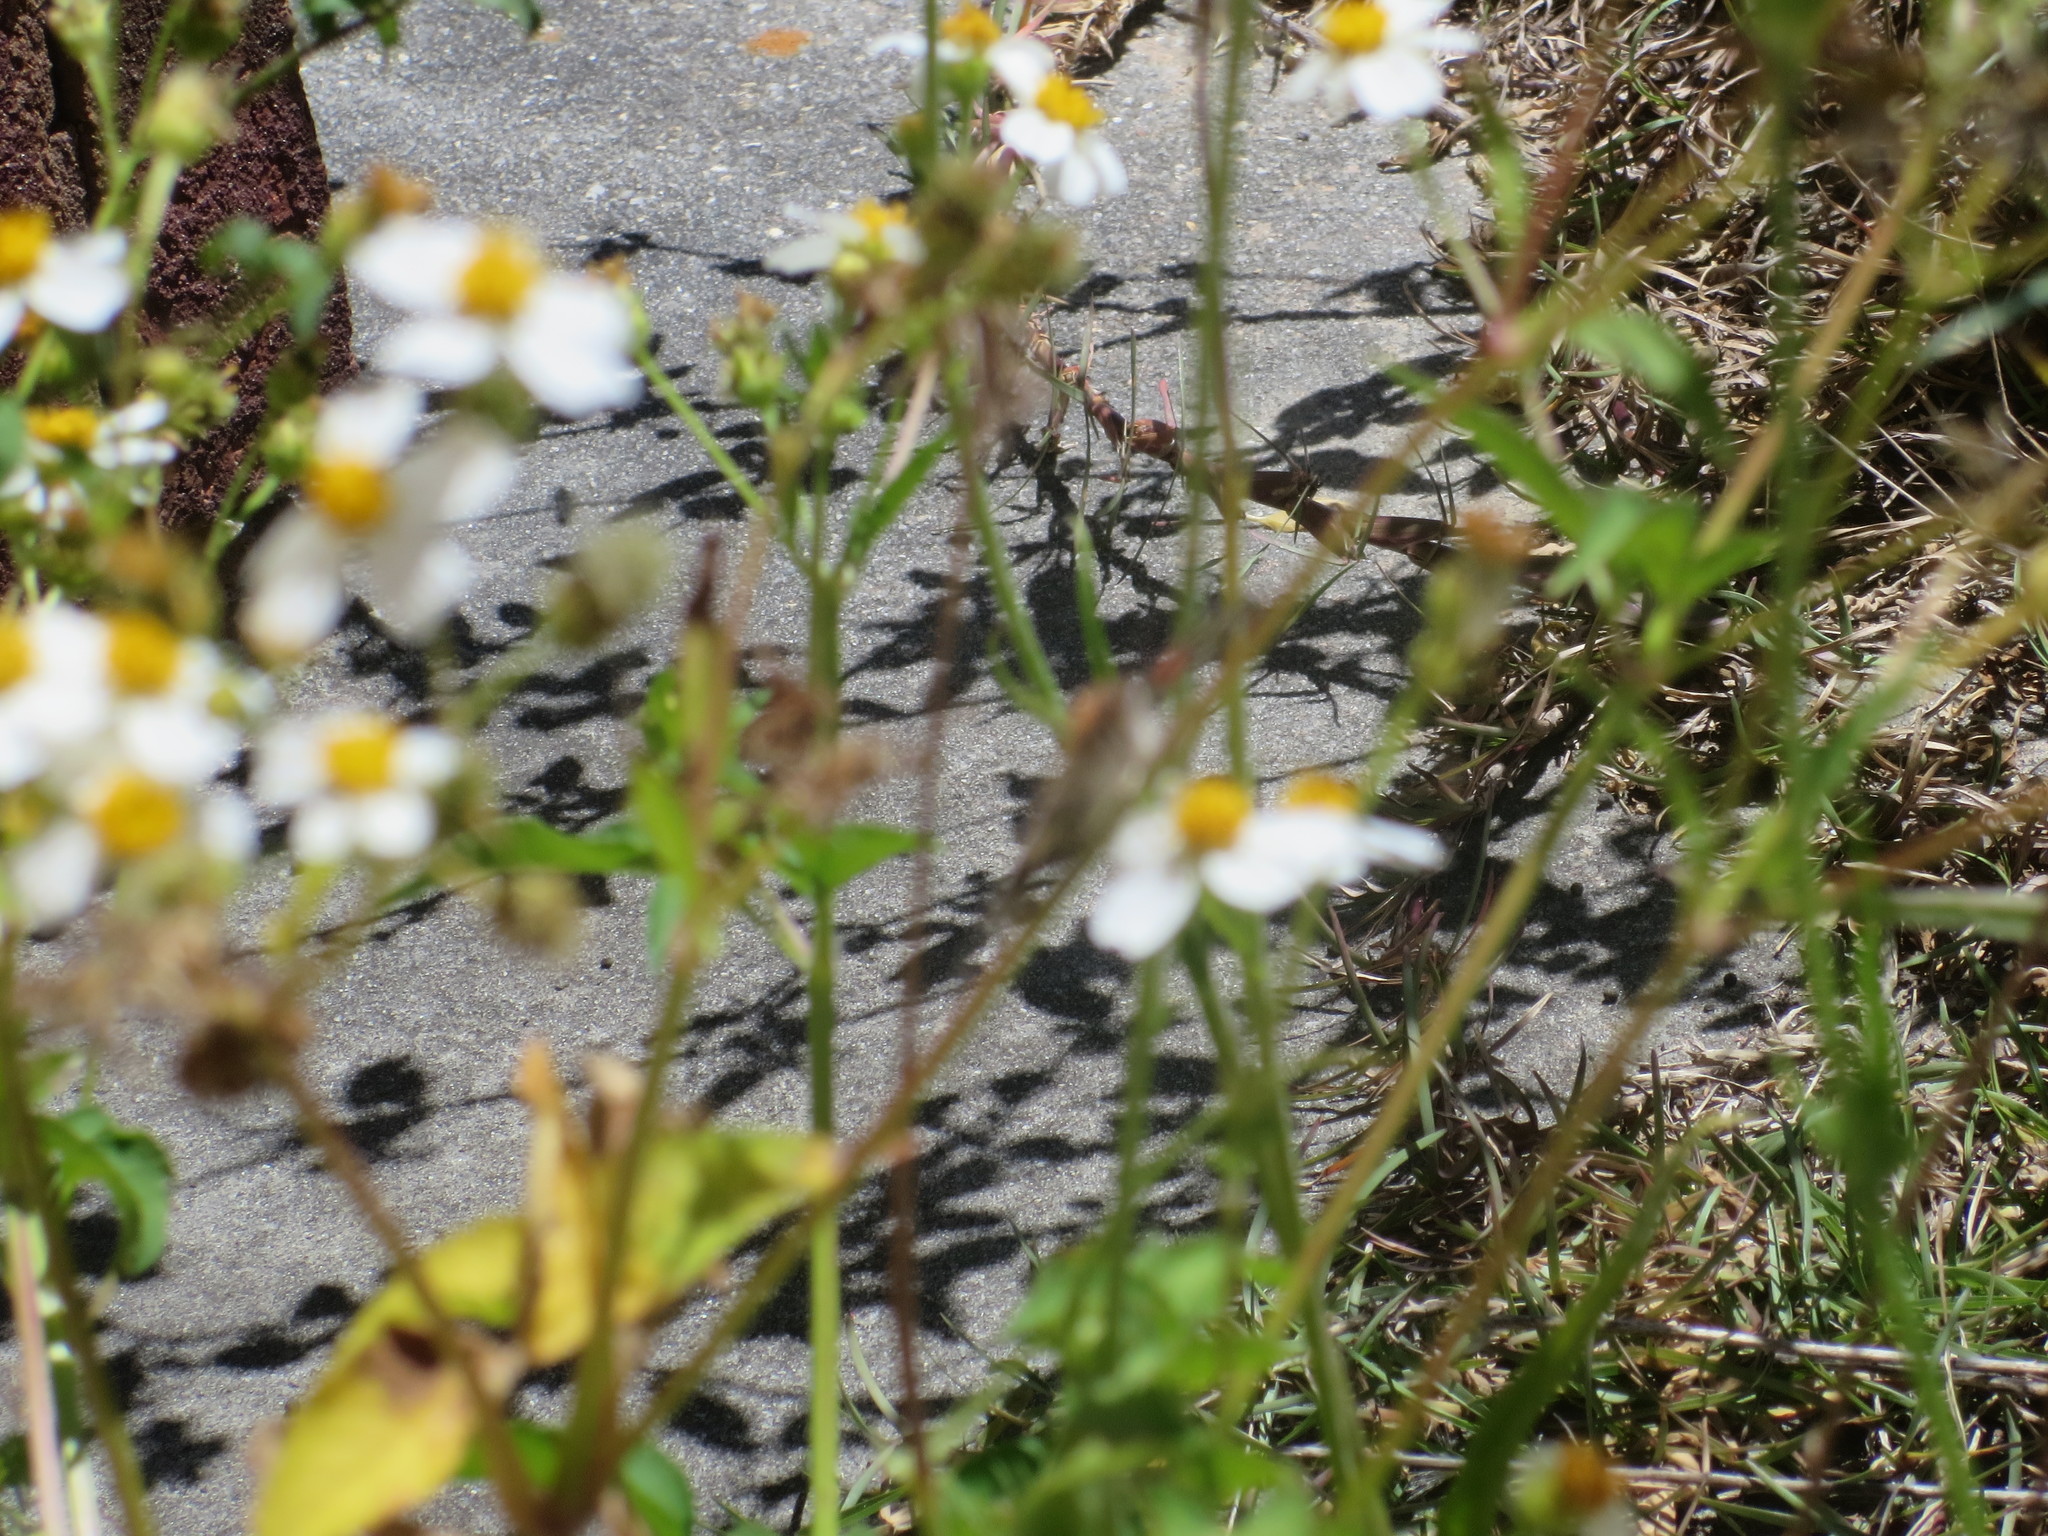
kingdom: Plantae
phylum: Tracheophyta
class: Magnoliopsida
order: Asterales
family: Asteraceae
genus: Bidens
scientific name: Bidens alba
